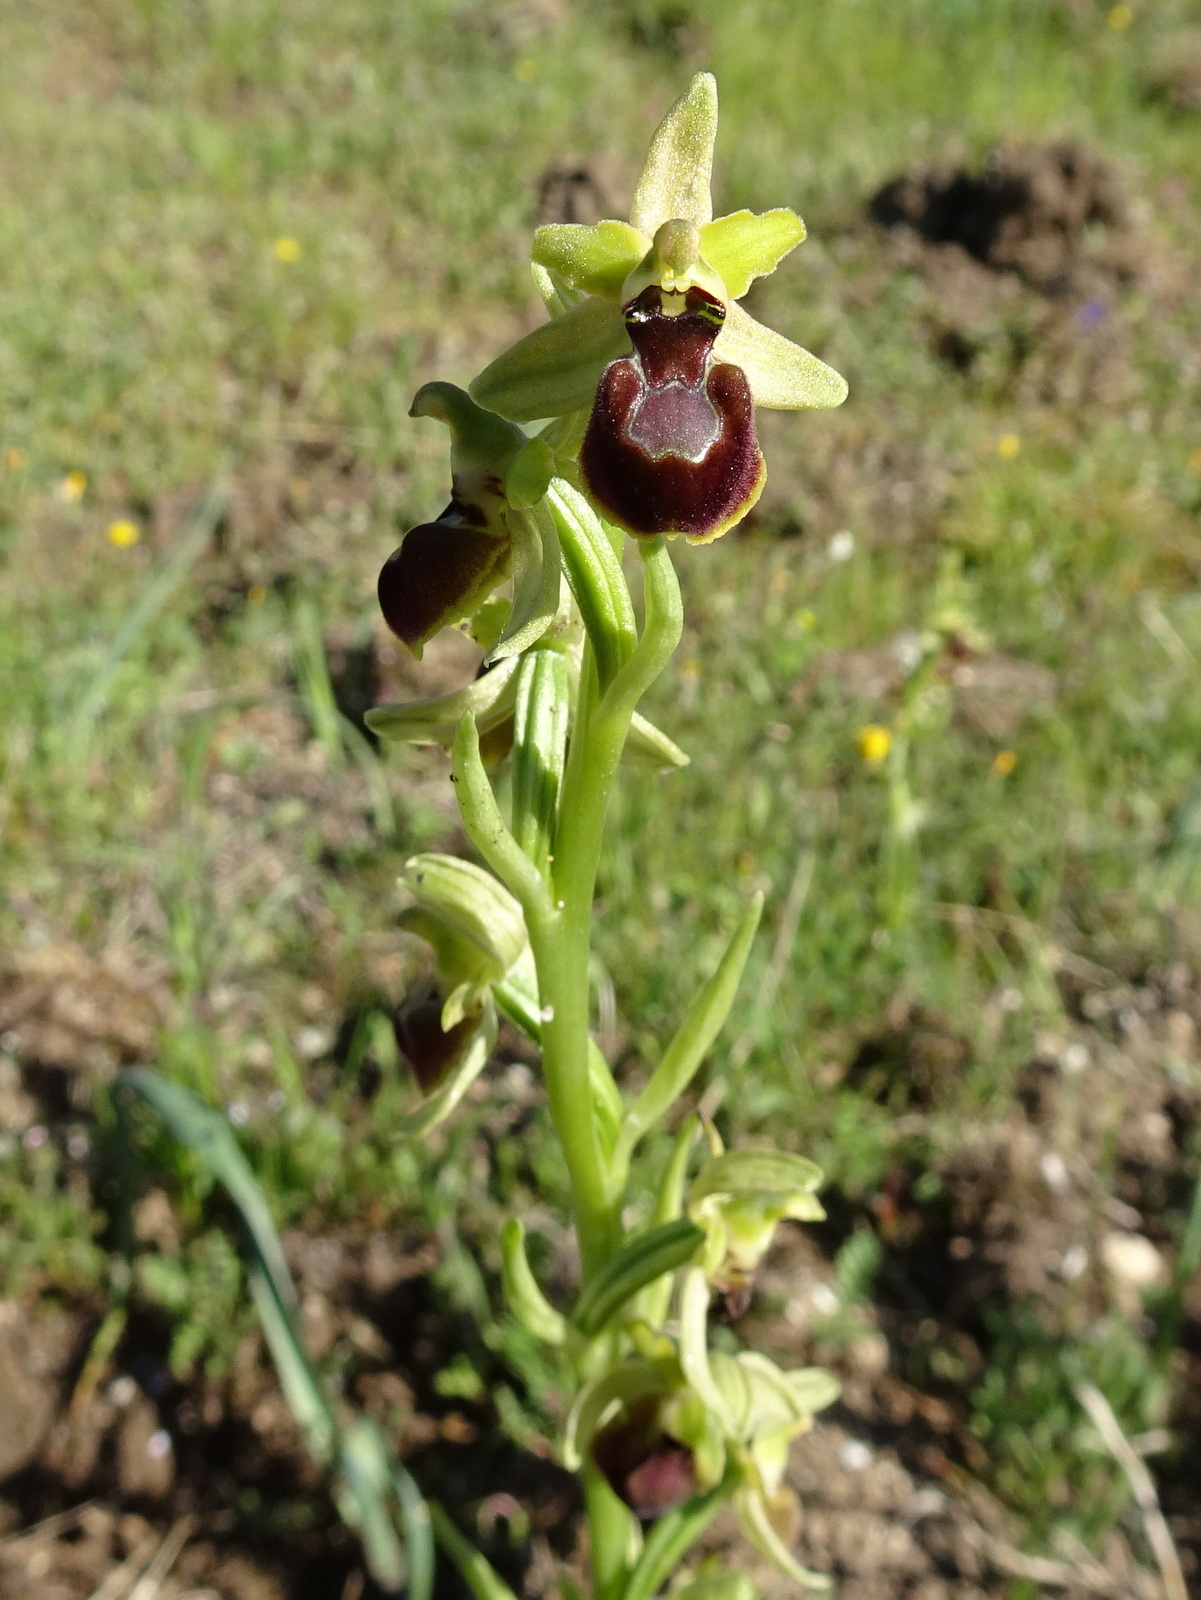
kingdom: Plantae
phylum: Tracheophyta
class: Liliopsida
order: Asparagales
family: Orchidaceae
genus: Ophrys
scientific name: Ophrys sphegodes
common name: Early spider-orchid
